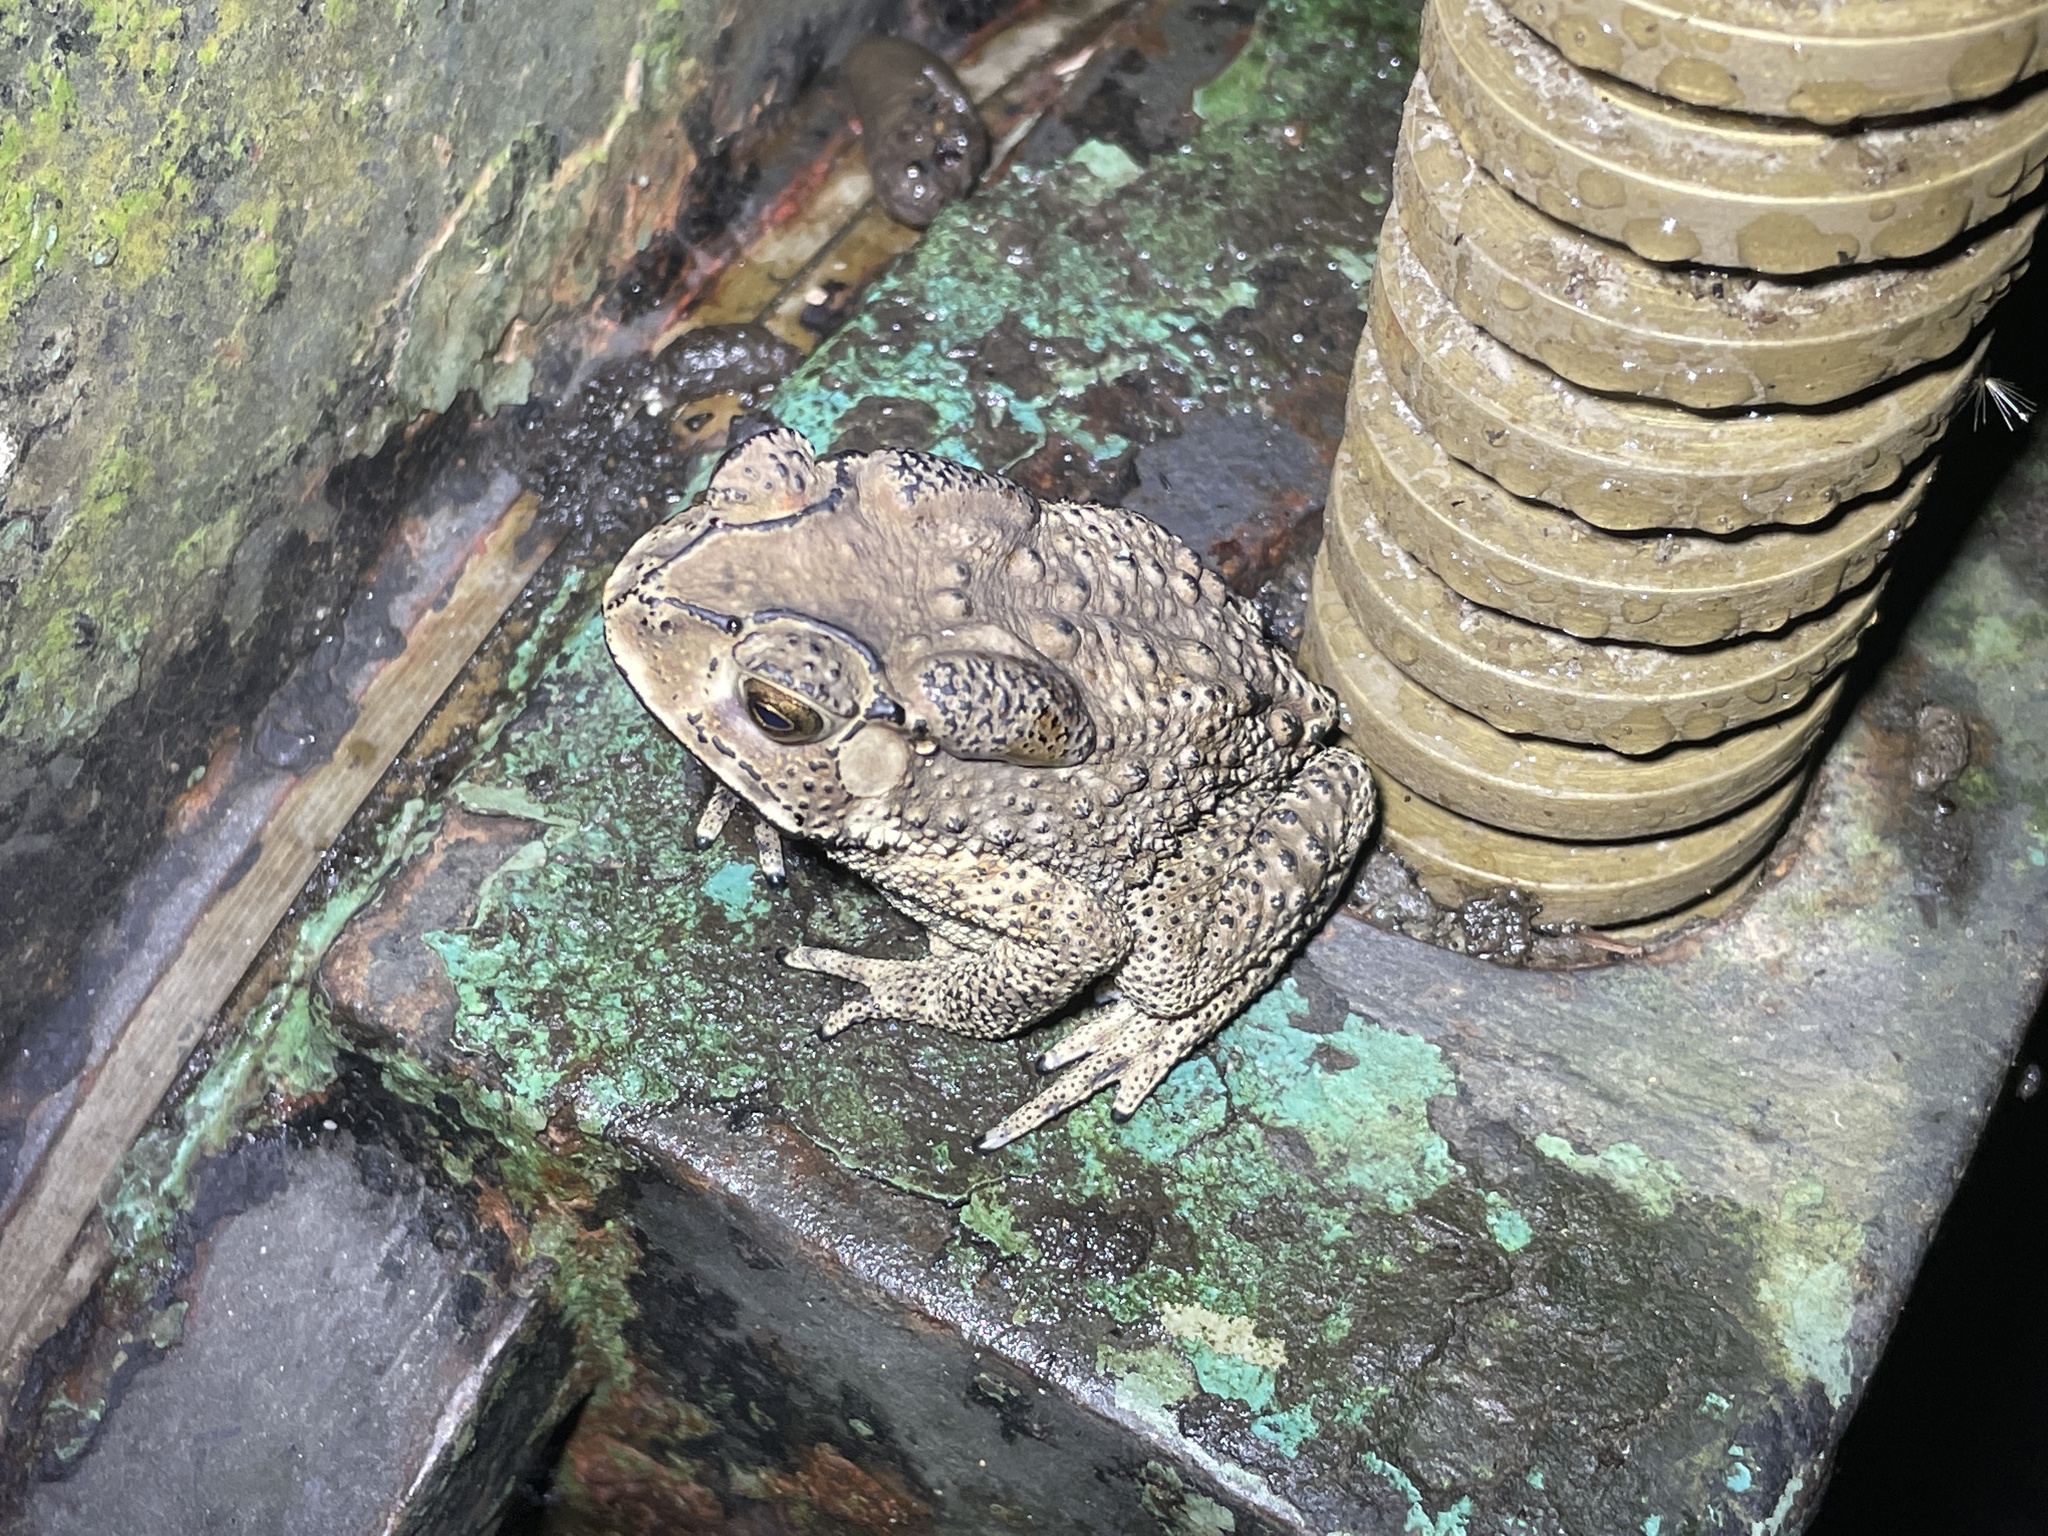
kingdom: Animalia
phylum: Chordata
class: Amphibia
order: Anura
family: Bufonidae
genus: Duttaphrynus
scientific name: Duttaphrynus melanostictus
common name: Common sunda toad
